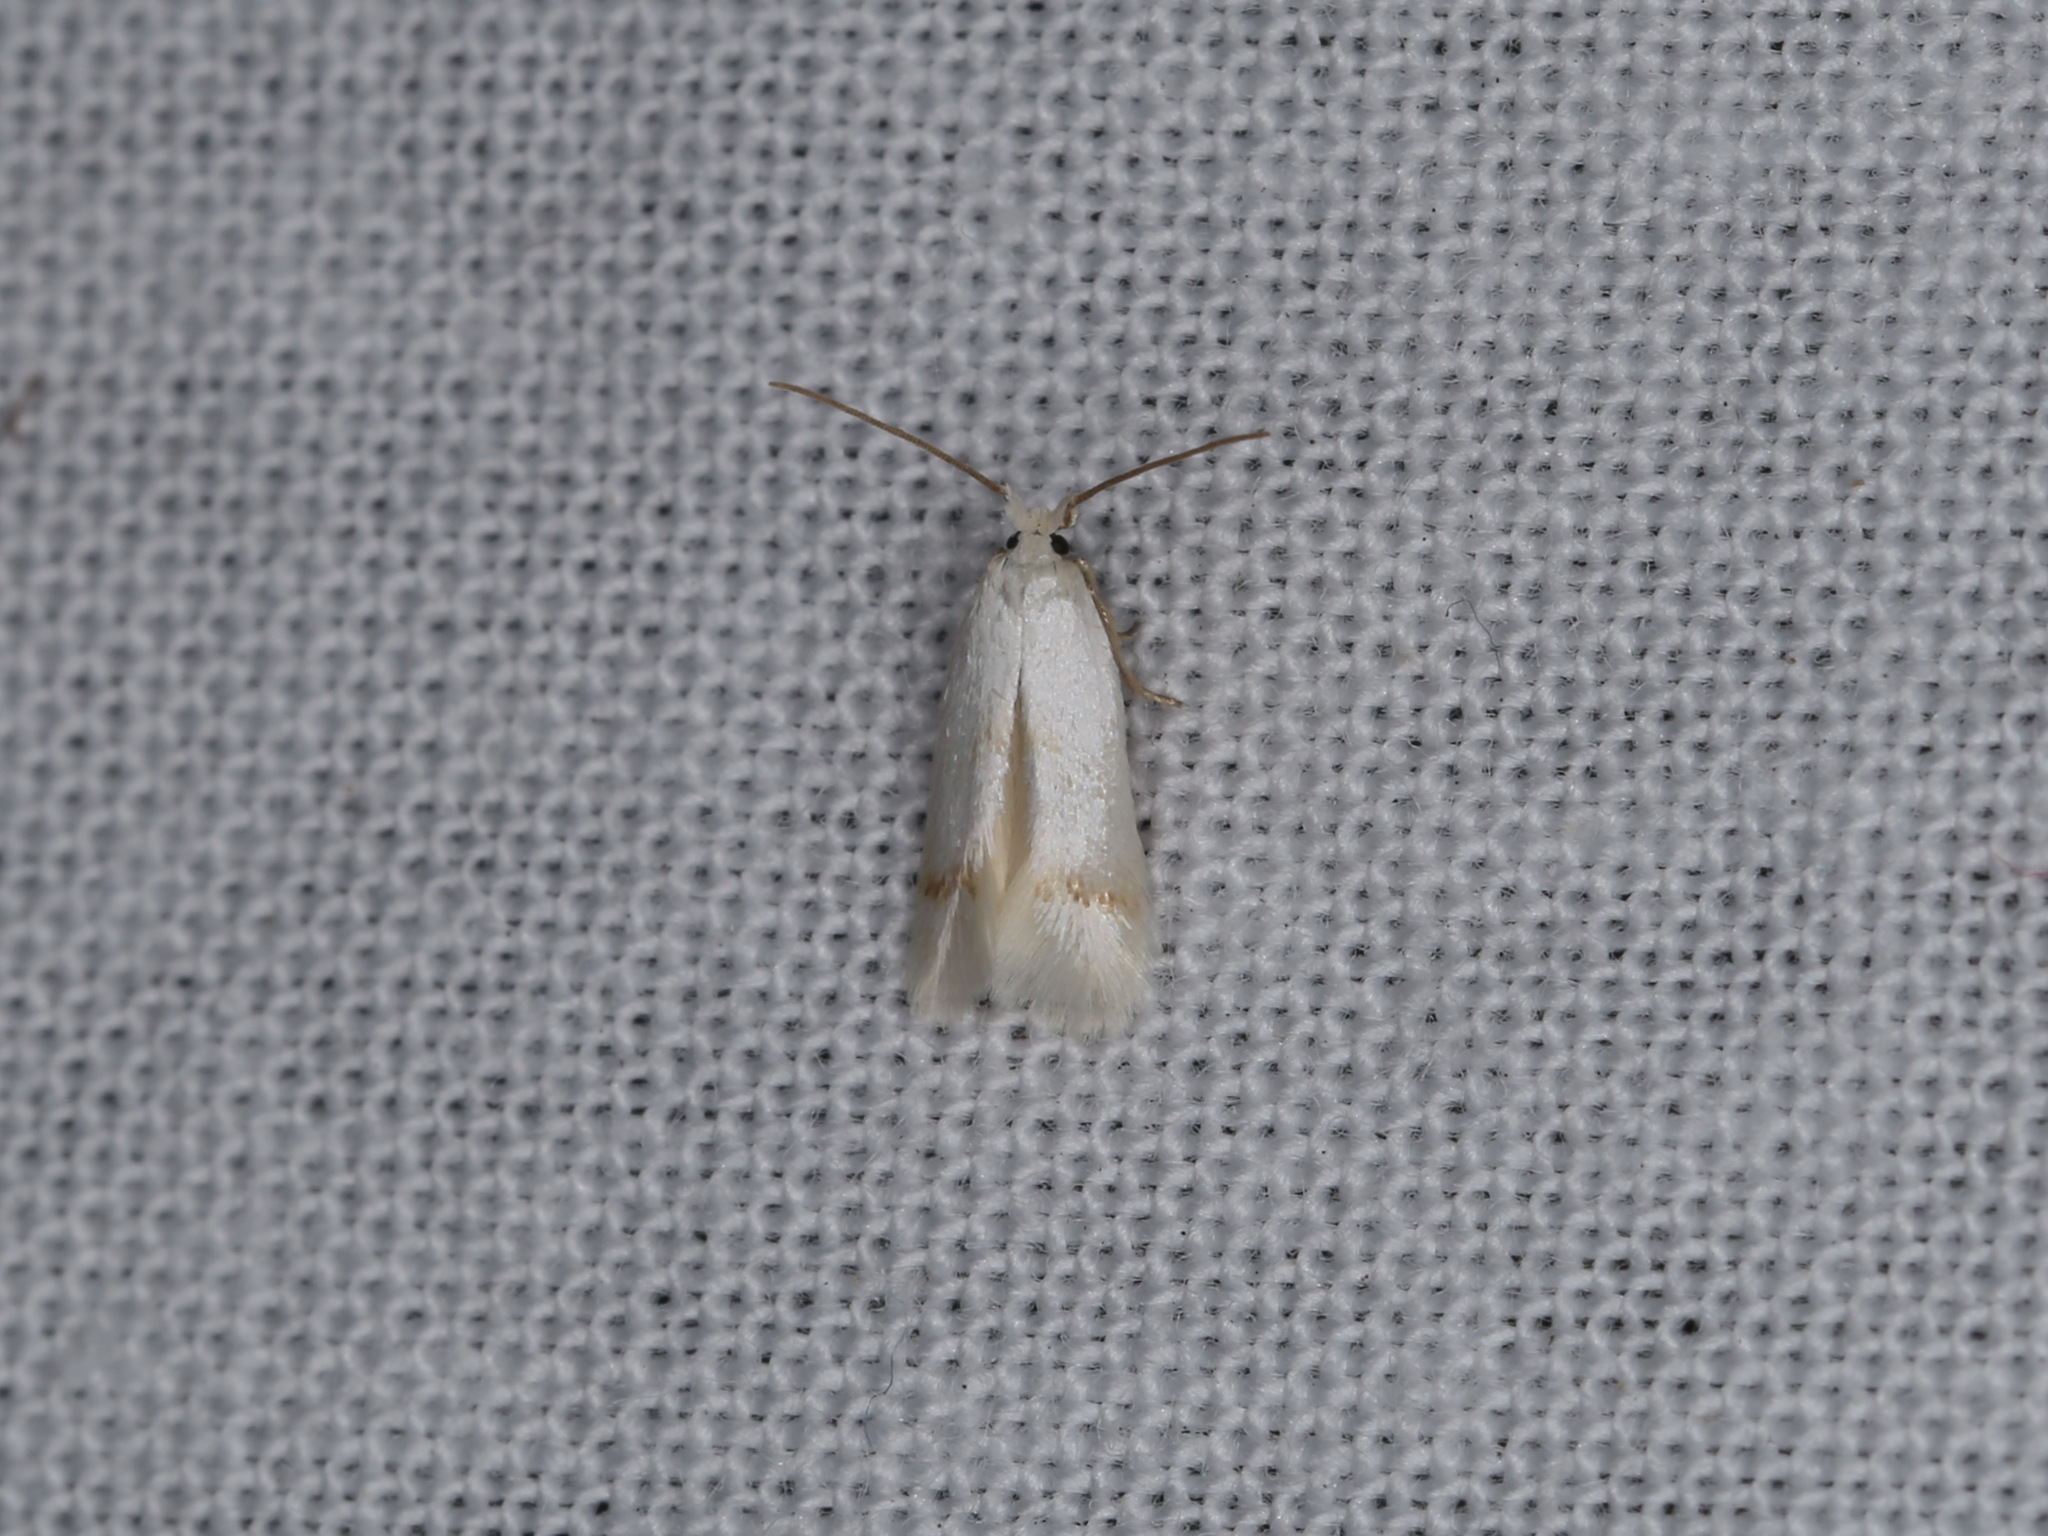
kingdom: Animalia
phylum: Arthropoda
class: Insecta
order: Lepidoptera
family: Opostegidae
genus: Opostega
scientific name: Opostega salaciella
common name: Sorrel bent-wing
